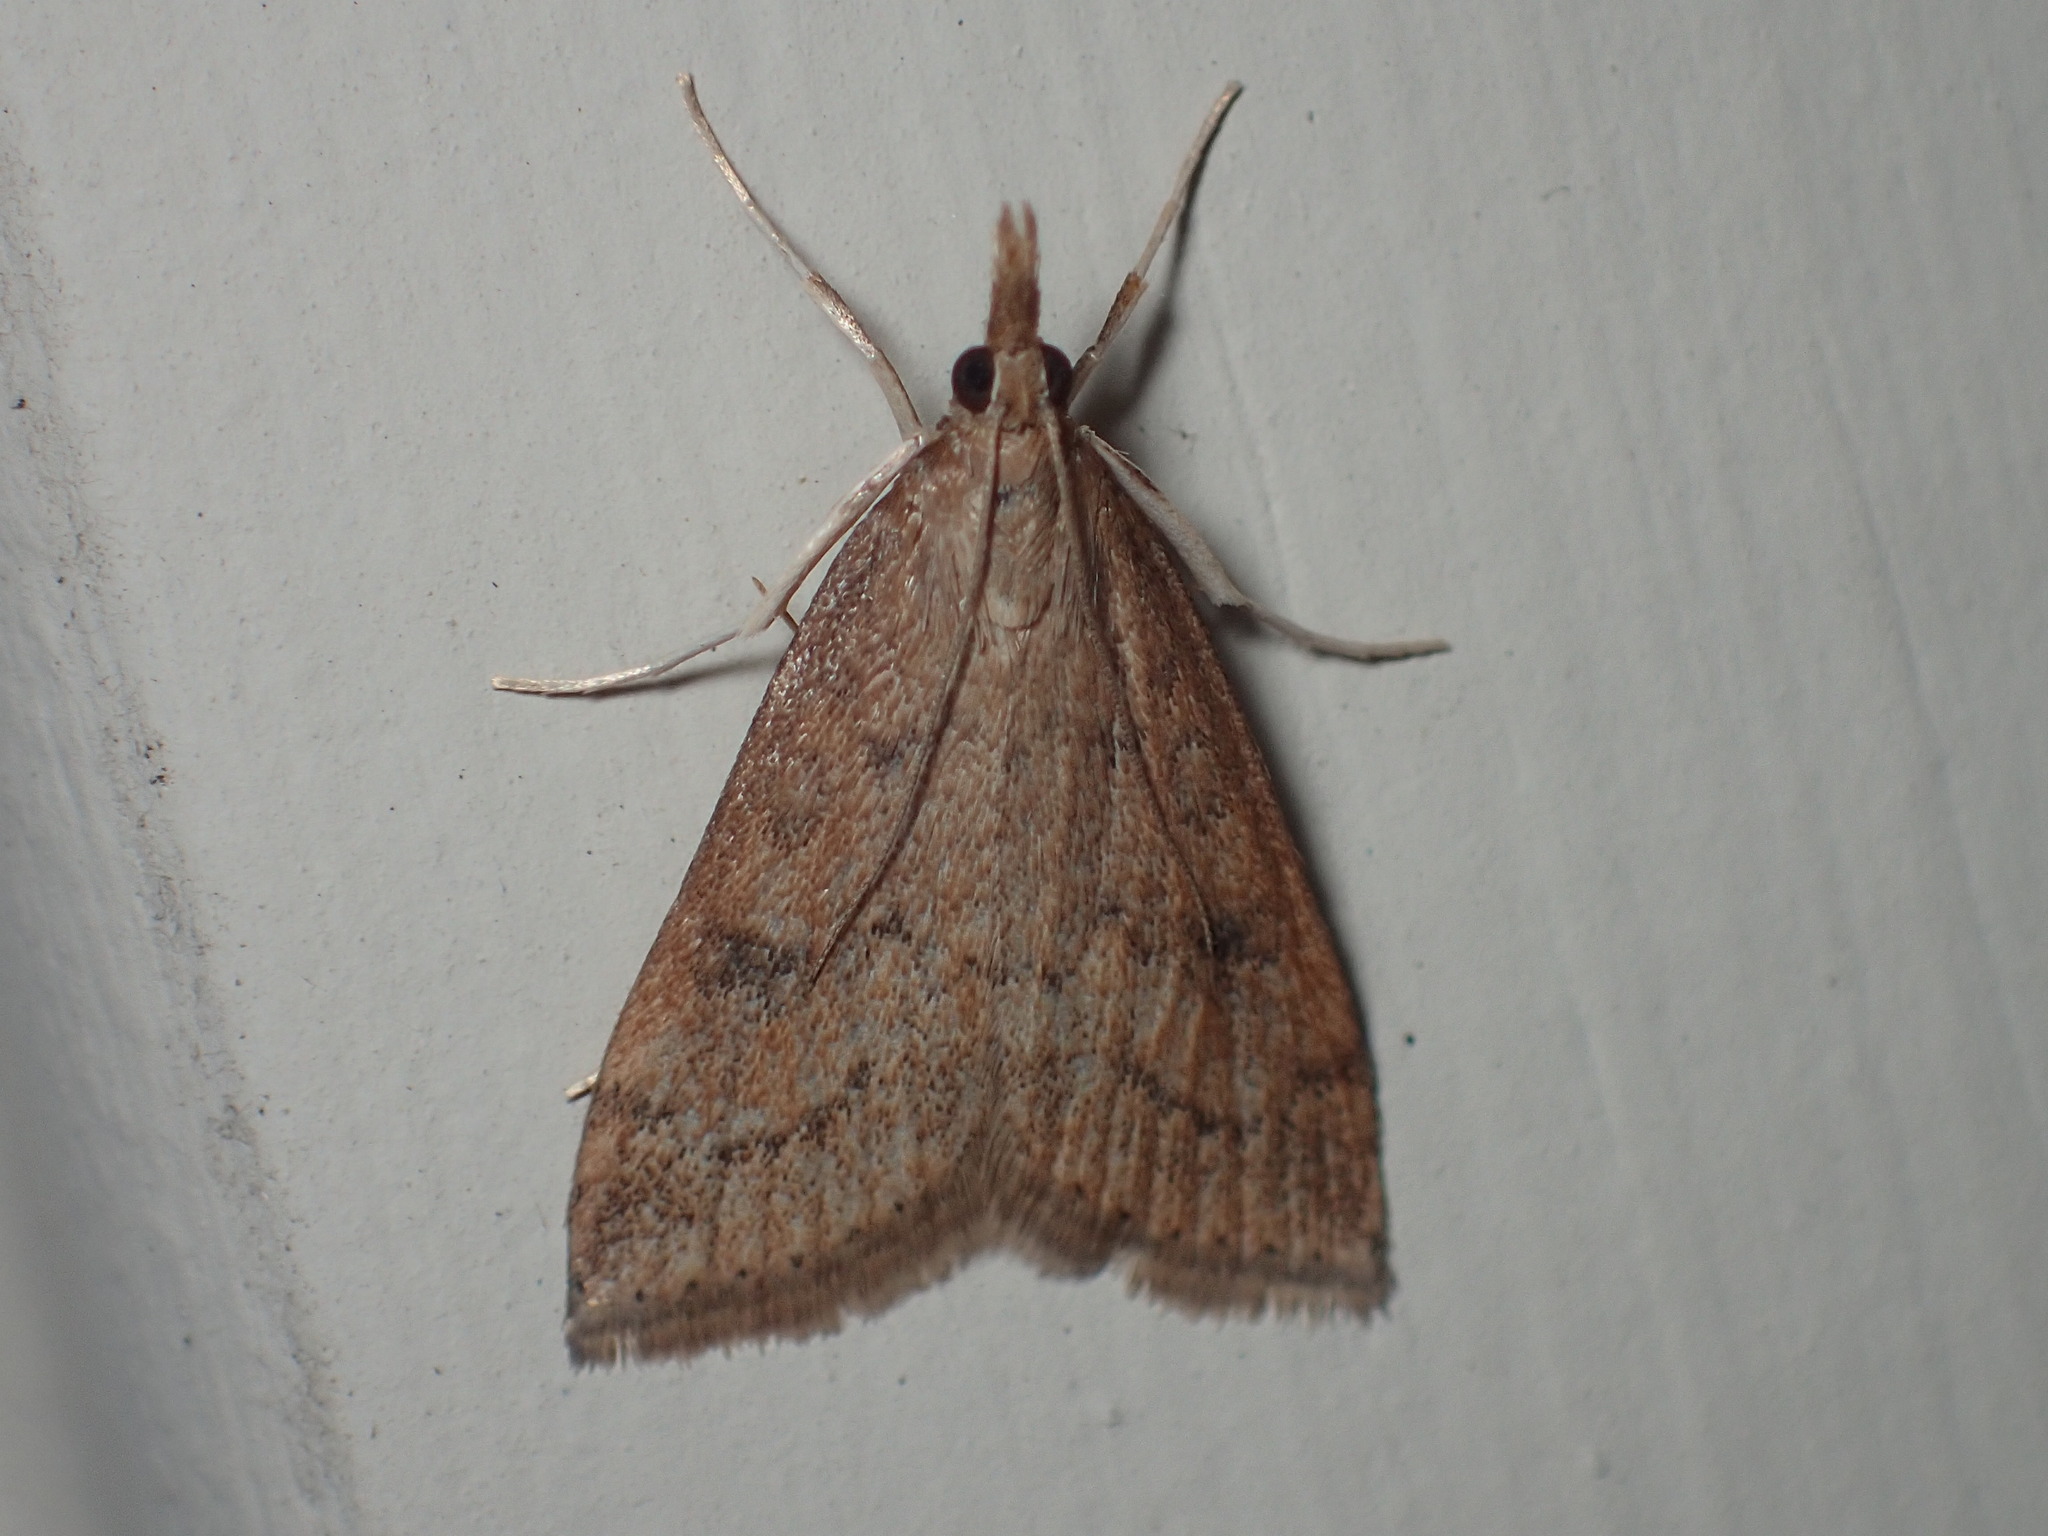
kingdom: Animalia
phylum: Arthropoda
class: Insecta
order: Lepidoptera
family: Crambidae
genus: Udea
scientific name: Udea rubigalis
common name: Celery leaftier moth
